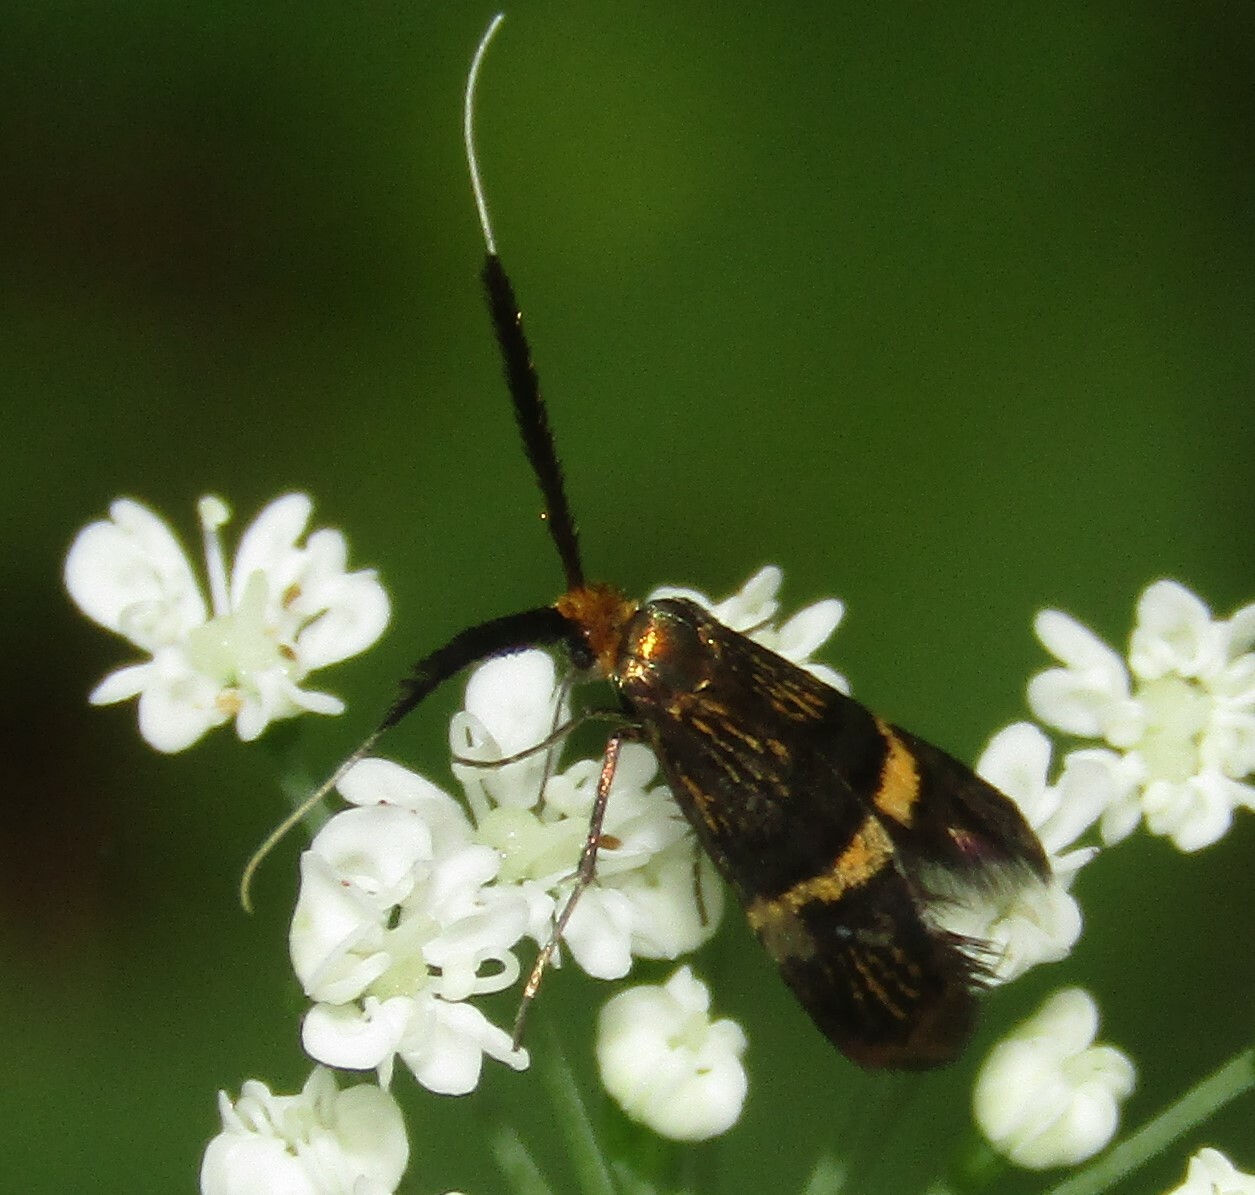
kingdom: Animalia
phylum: Arthropoda
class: Insecta
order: Lepidoptera
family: Adelidae
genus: Adela
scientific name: Adela croesella
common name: Small barred long-horn
